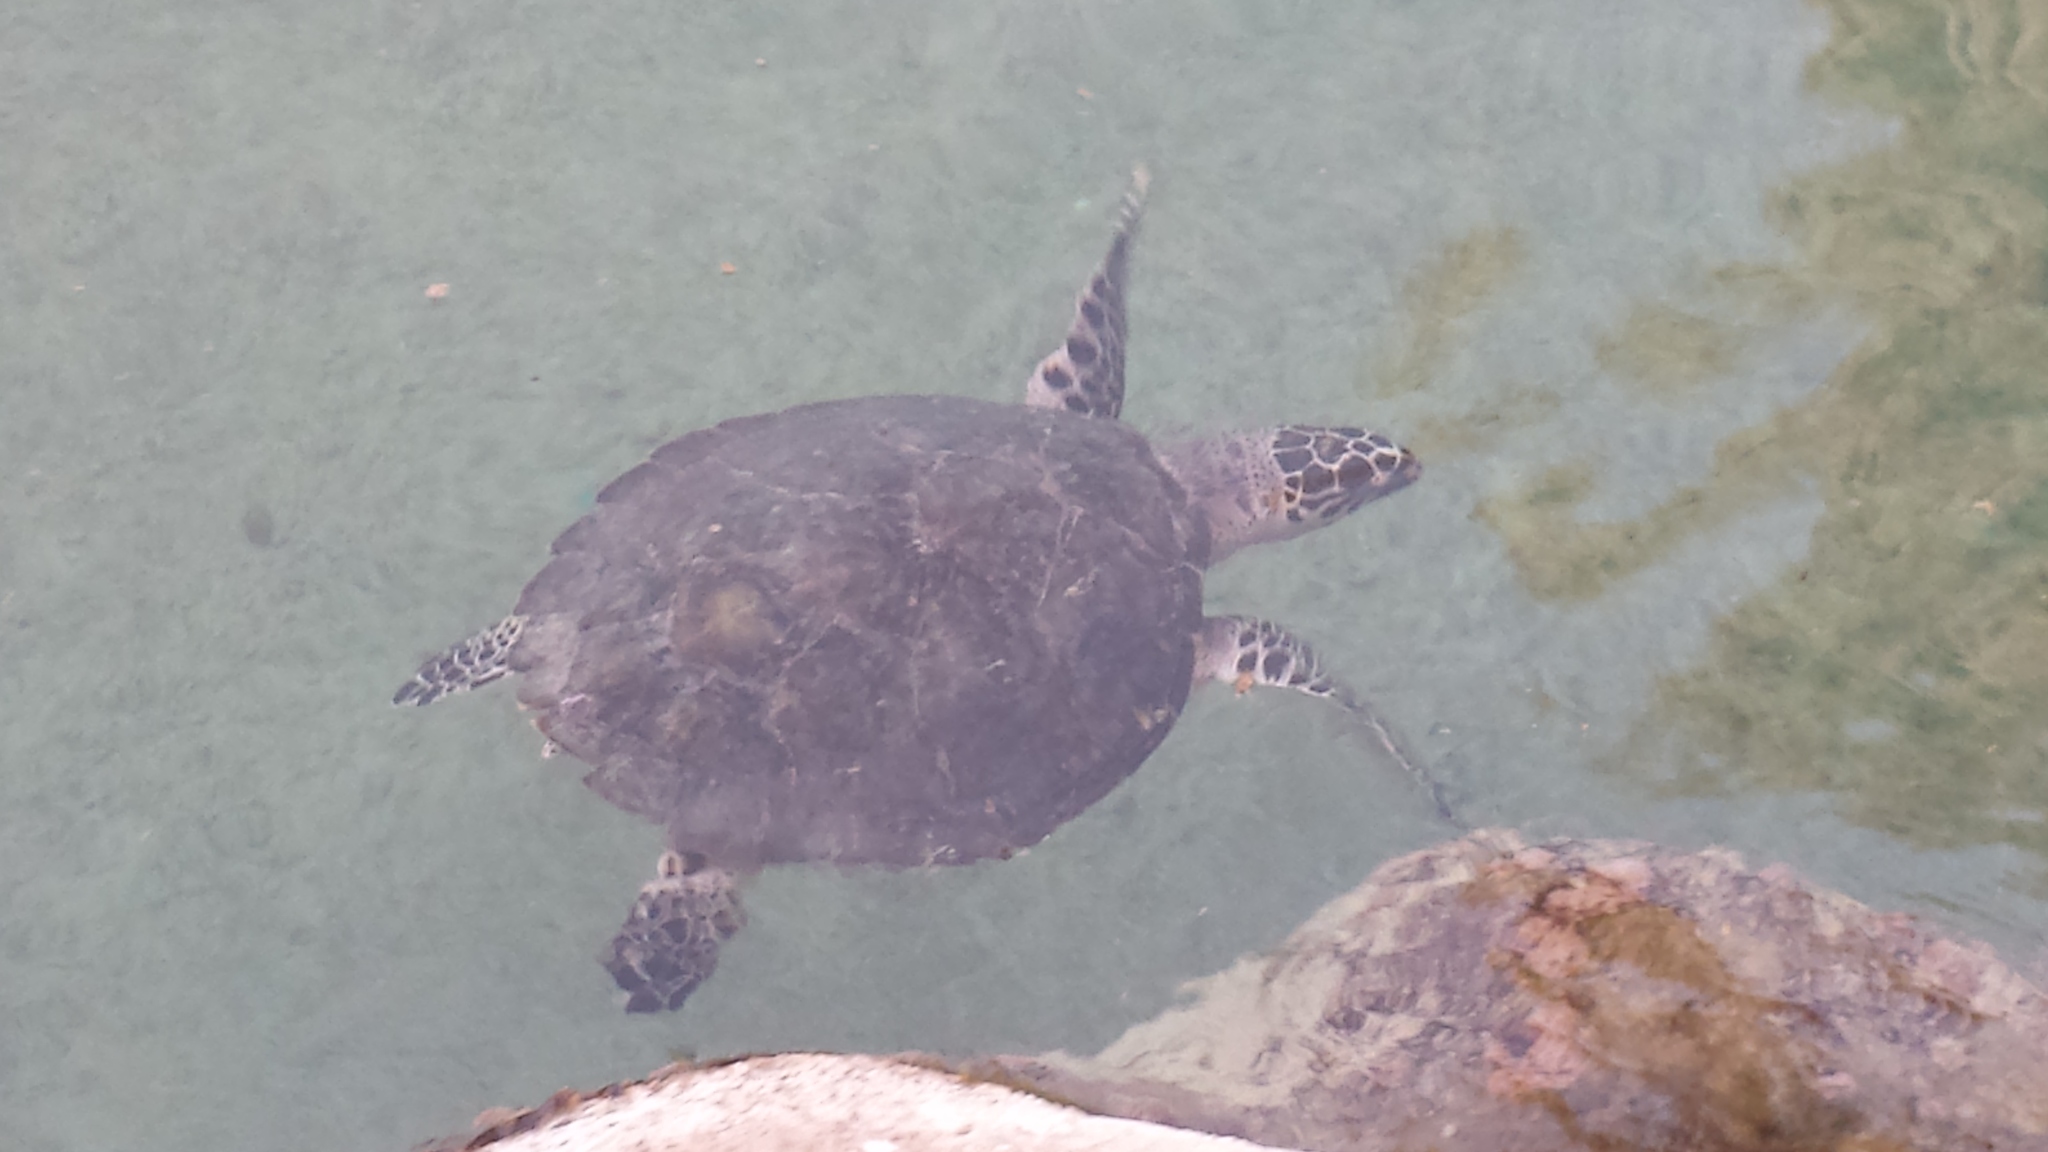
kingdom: Animalia
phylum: Chordata
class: Testudines
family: Cheloniidae
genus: Eretmochelys
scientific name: Eretmochelys imbricata
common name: Hawksbill turtle
